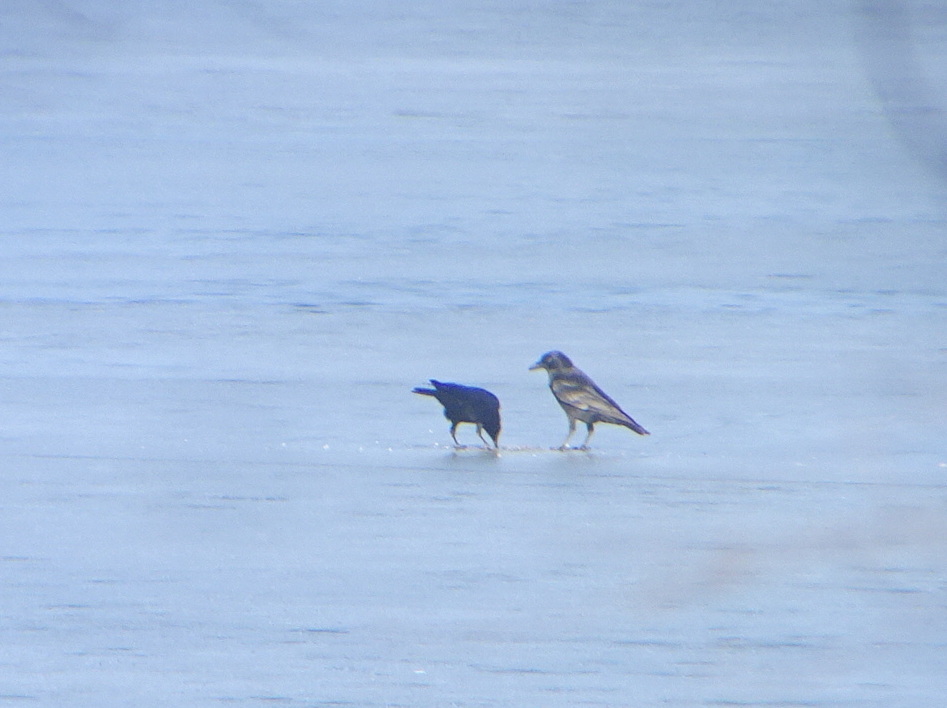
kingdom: Animalia
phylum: Chordata
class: Aves
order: Passeriformes
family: Corvidae
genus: Corvus
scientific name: Corvus brachyrhynchos
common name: American crow
